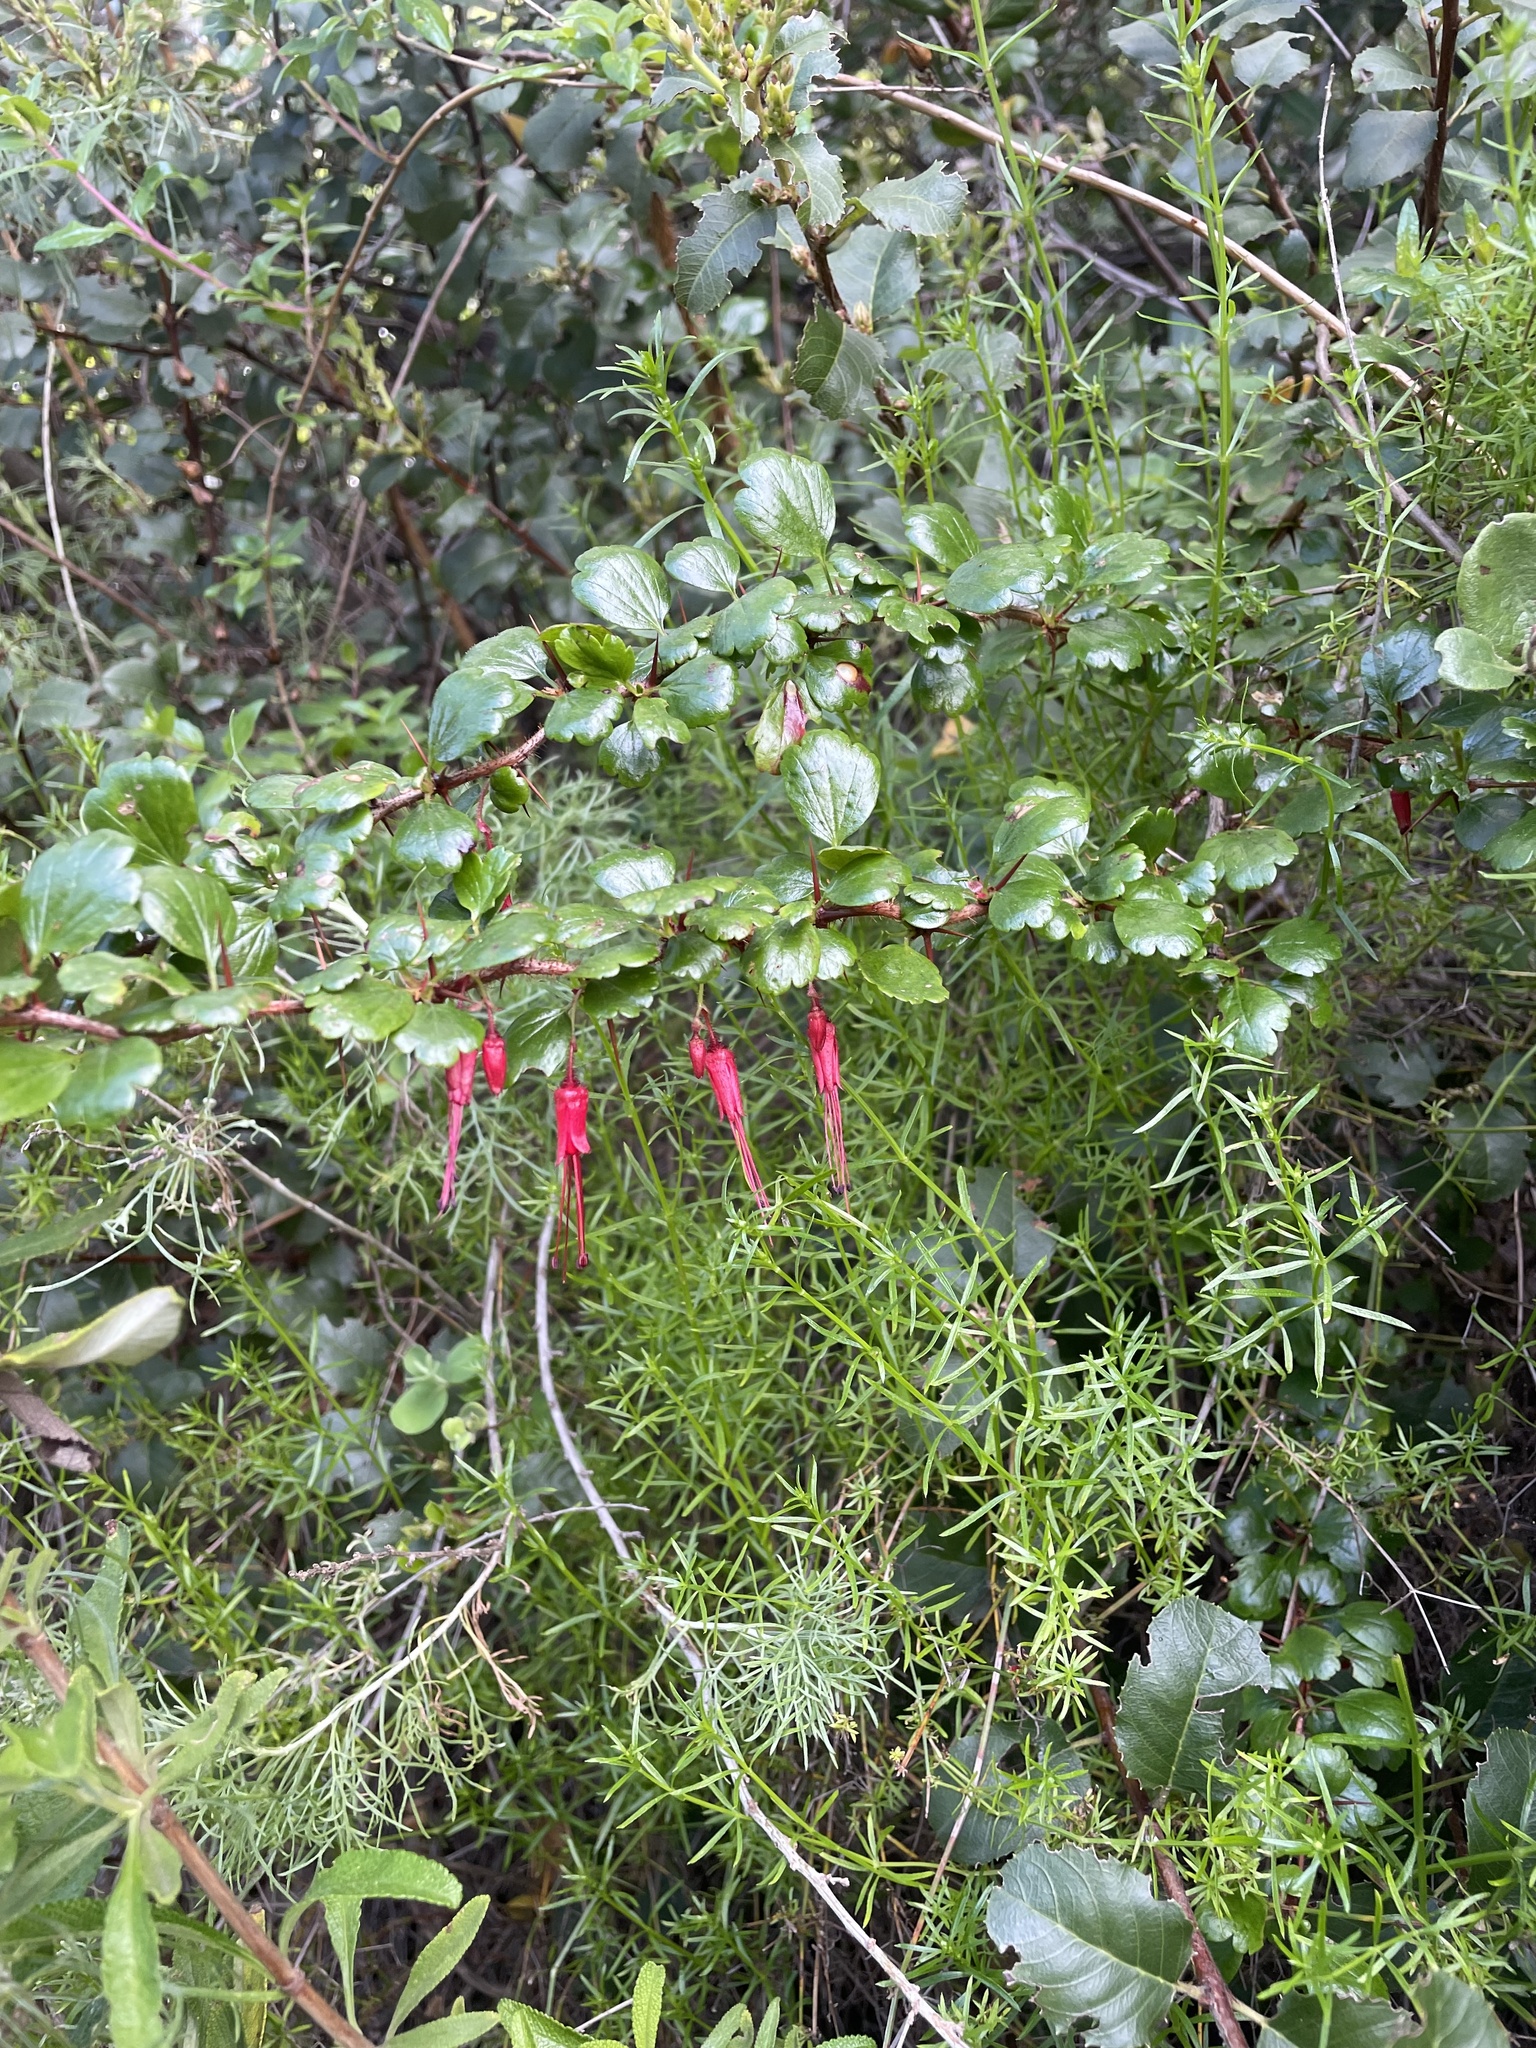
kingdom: Plantae
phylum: Tracheophyta
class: Magnoliopsida
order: Saxifragales
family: Grossulariaceae
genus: Ribes
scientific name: Ribes speciosum
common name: Fuchsia-flower gooseberry
